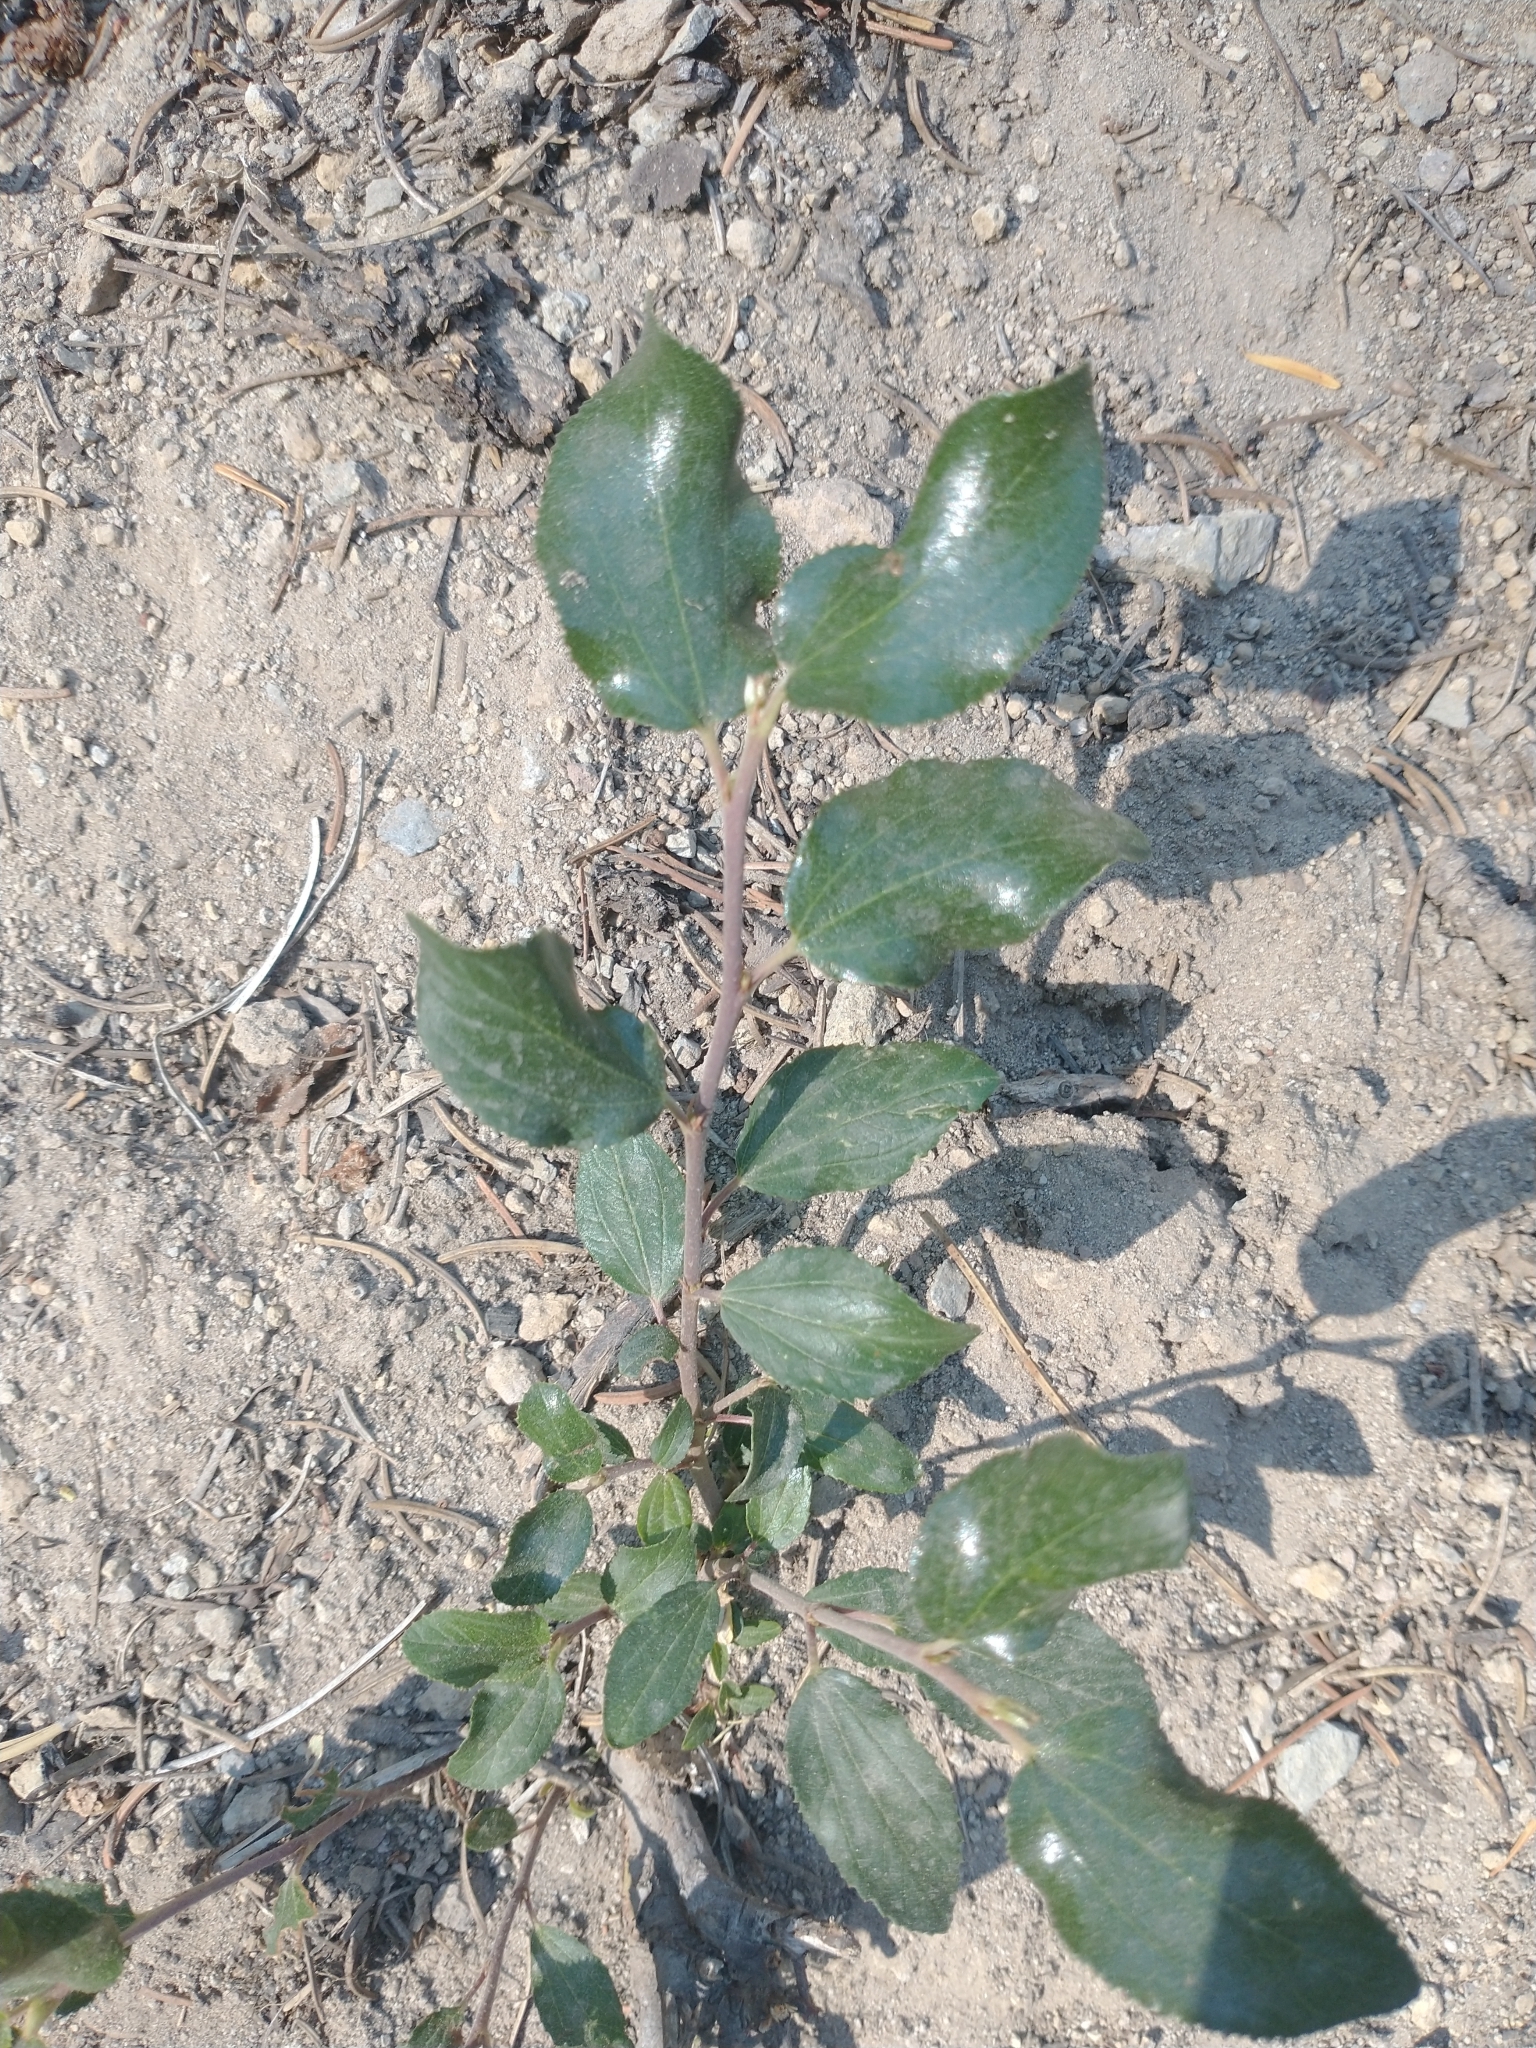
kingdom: Plantae
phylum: Tracheophyta
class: Magnoliopsida
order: Rosales
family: Rhamnaceae
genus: Ceanothus
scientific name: Ceanothus velutinus
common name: Snowbrush
